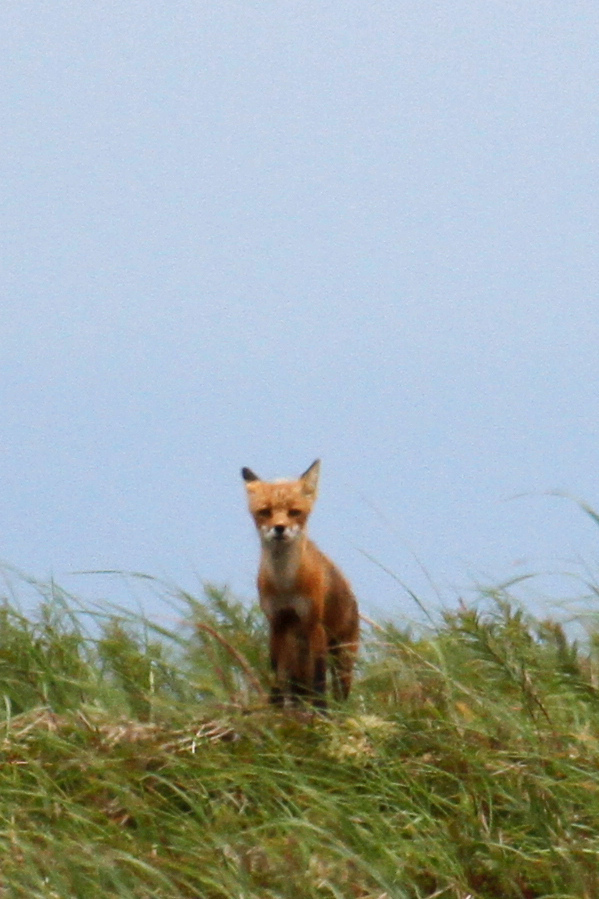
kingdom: Animalia
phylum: Chordata
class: Mammalia
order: Carnivora
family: Canidae
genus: Vulpes
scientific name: Vulpes vulpes
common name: Red fox
